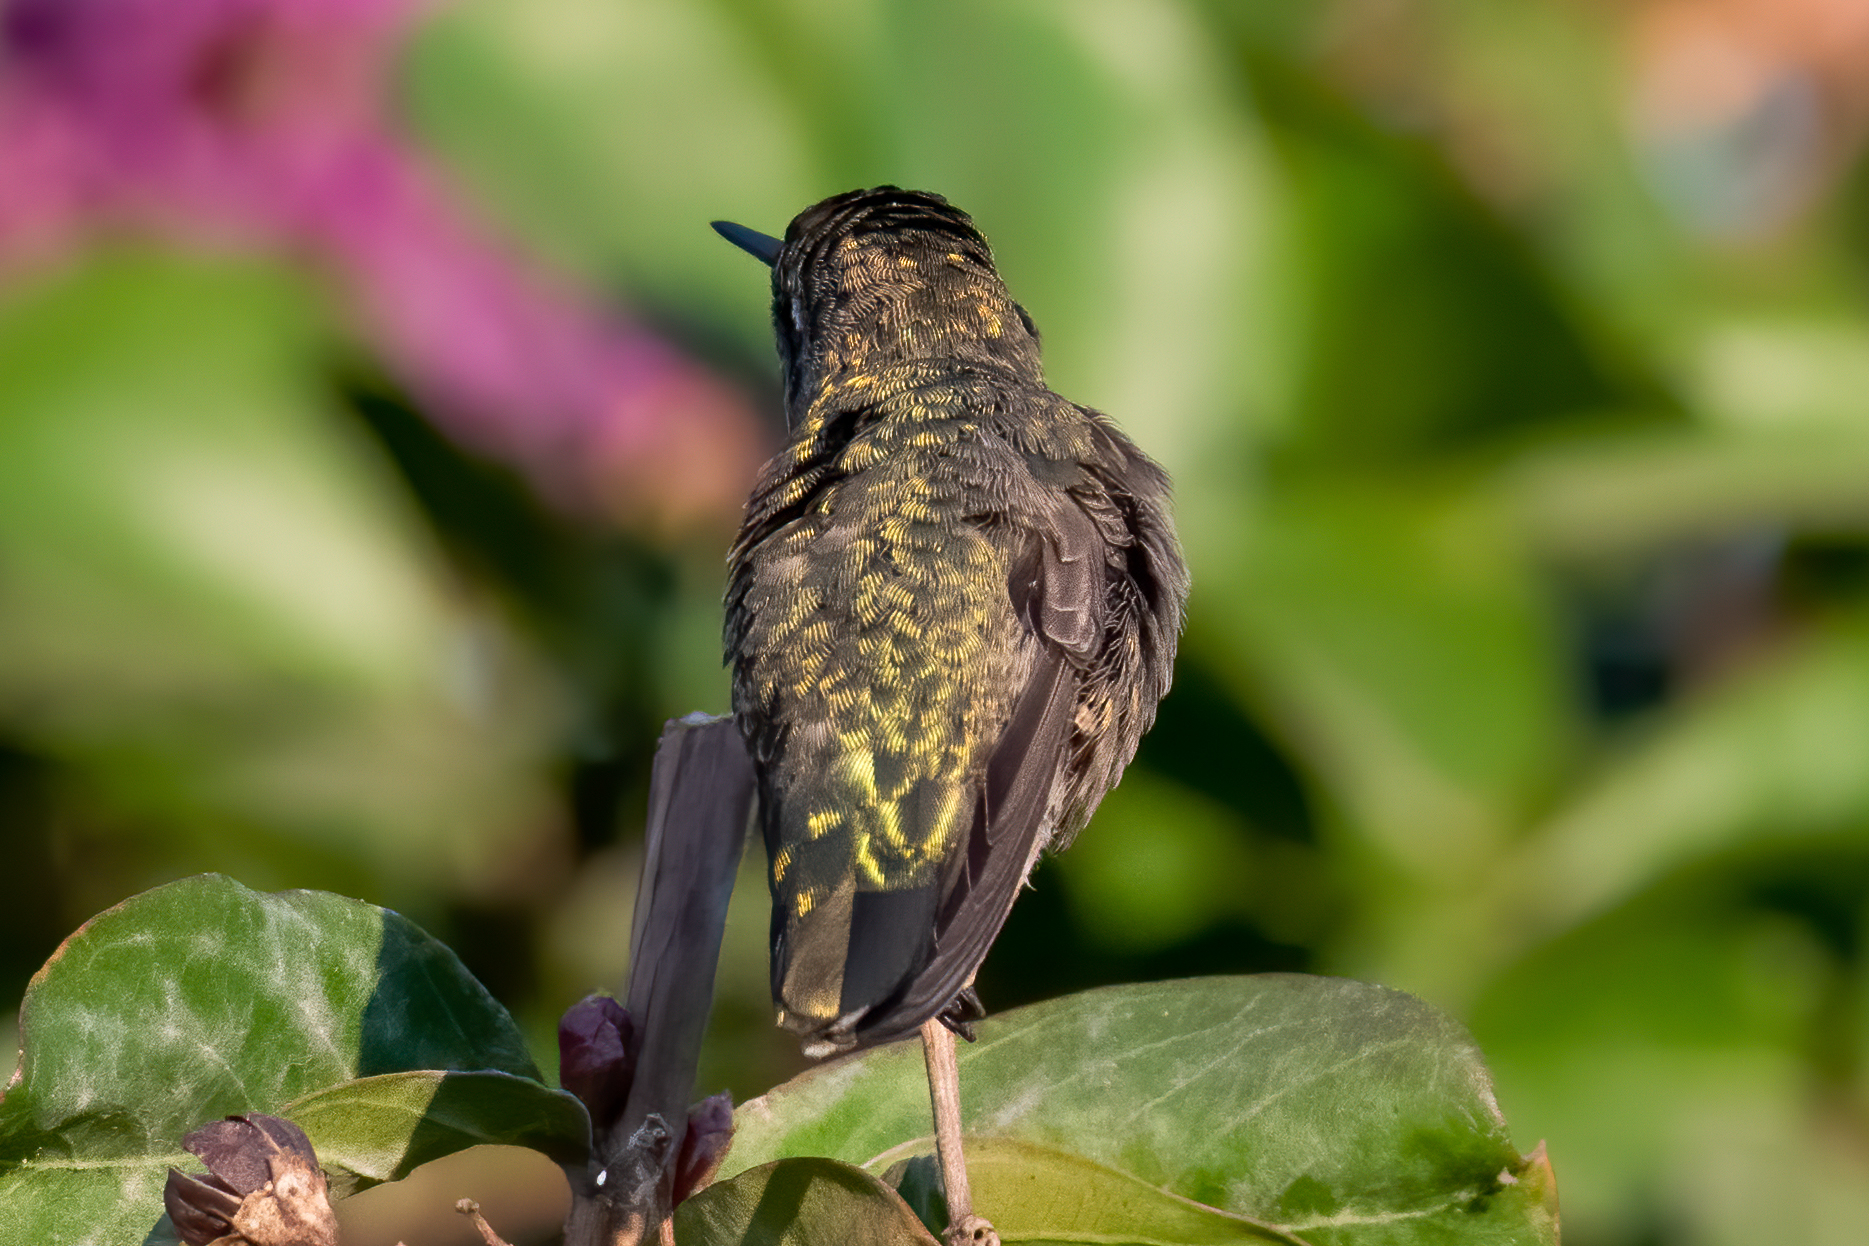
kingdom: Animalia
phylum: Chordata
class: Aves
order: Apodiformes
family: Trochilidae
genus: Calypte
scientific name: Calypte anna
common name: Anna's hummingbird
